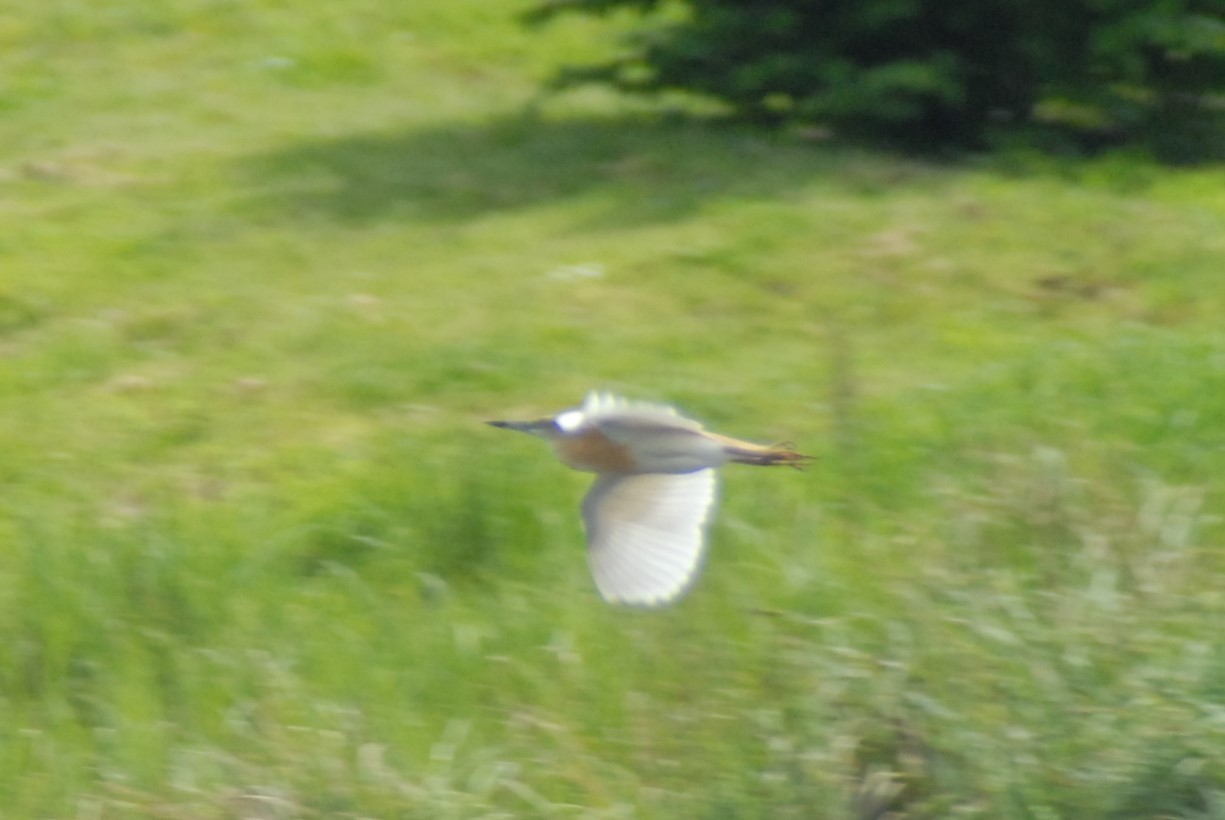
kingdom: Animalia
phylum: Chordata
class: Aves
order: Pelecaniformes
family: Ardeidae
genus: Ardeola
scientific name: Ardeola ralloides
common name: Squacco heron
